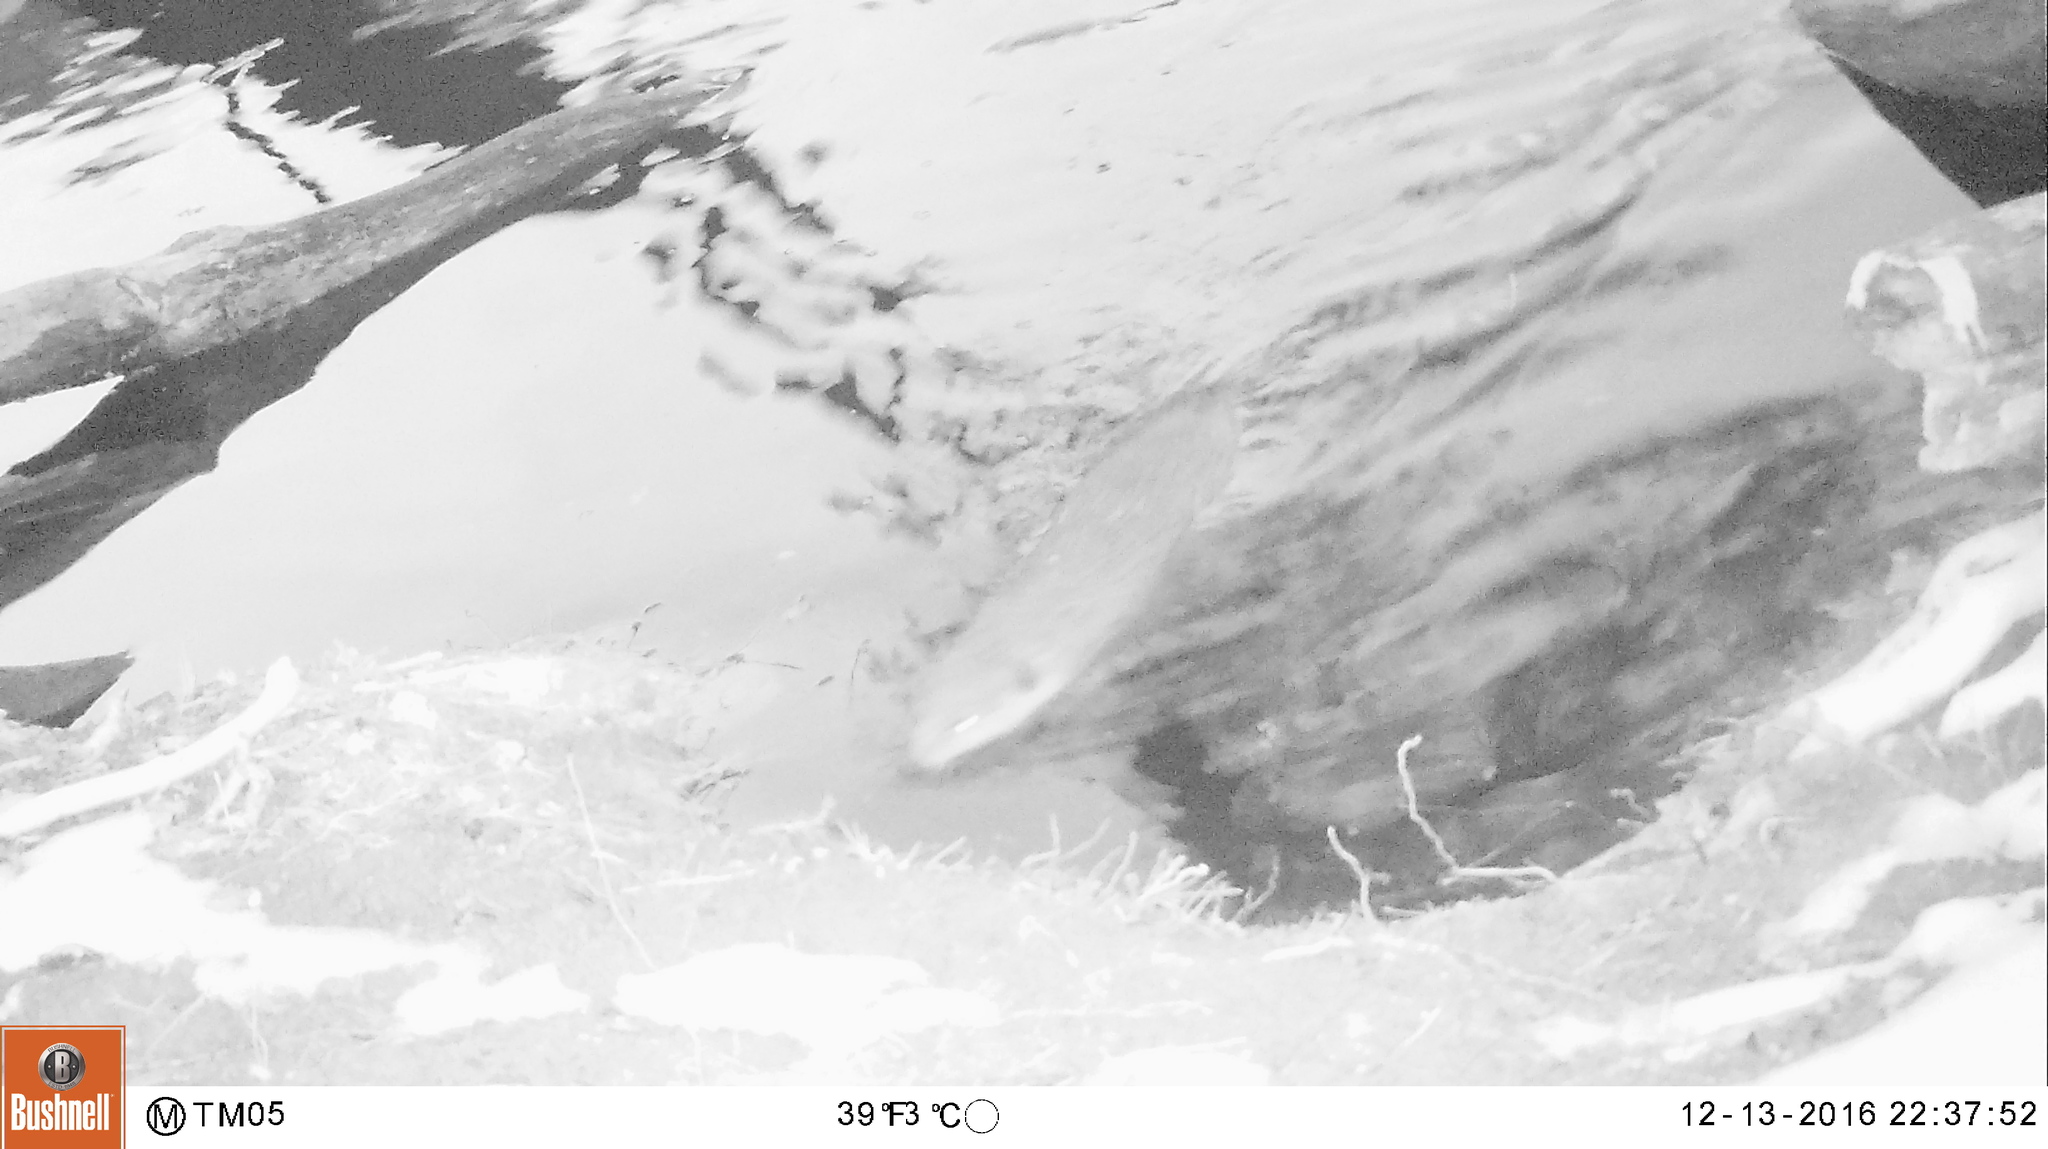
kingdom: Animalia
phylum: Chordata
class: Mammalia
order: Rodentia
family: Cricetidae
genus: Ondatra
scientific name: Ondatra zibethicus
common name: Muskrat
